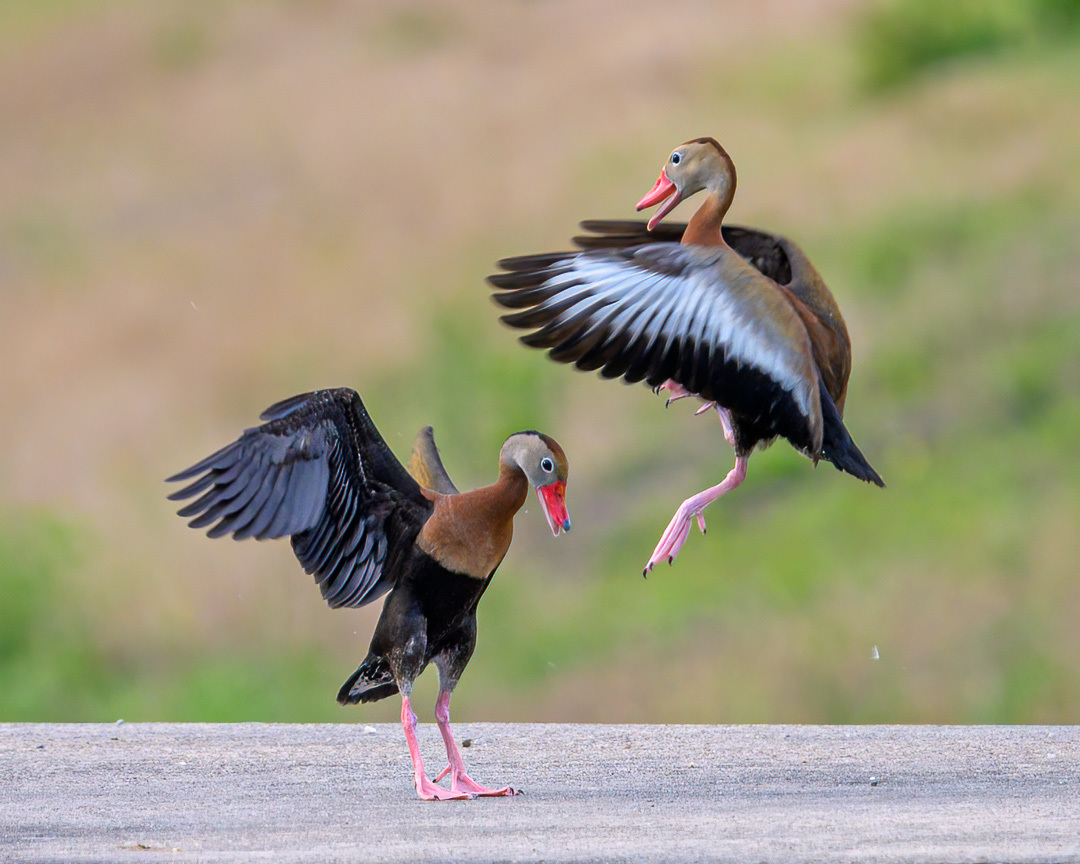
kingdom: Animalia
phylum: Chordata
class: Aves
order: Anseriformes
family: Anatidae
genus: Dendrocygna
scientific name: Dendrocygna autumnalis
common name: Black-bellied whistling duck
